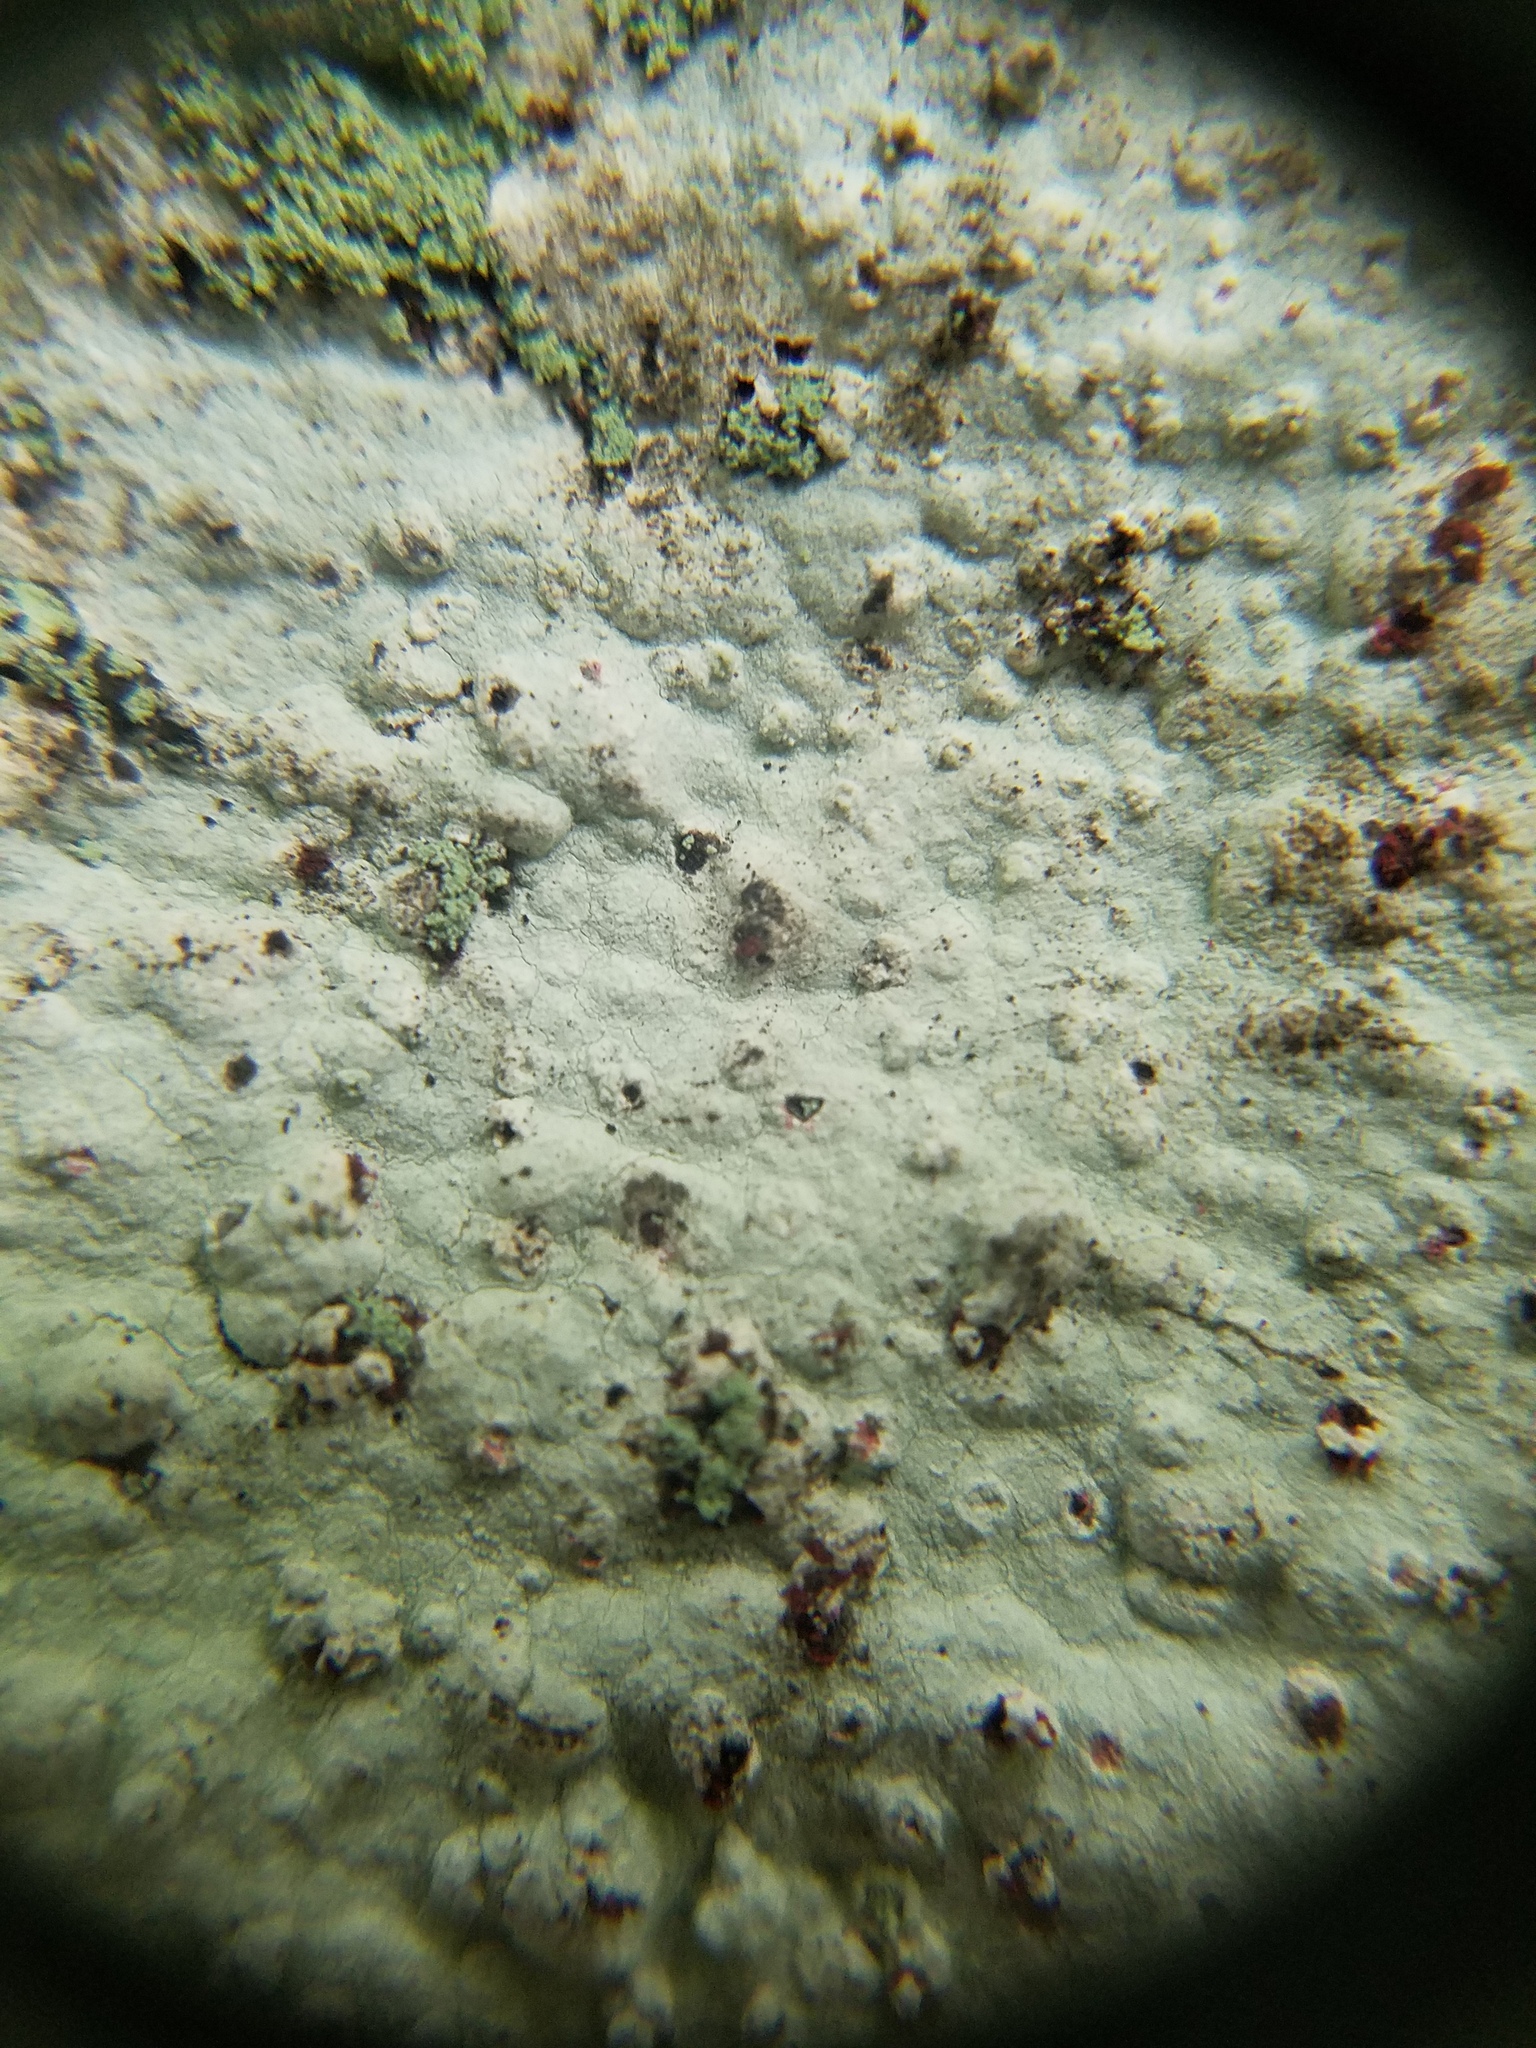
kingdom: Fungi
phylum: Ascomycota
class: Lecanoromycetes
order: Ostropales
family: Phlyctidaceae
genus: Phlyctis
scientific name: Phlyctis petraea
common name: Eggshell rock blaze
